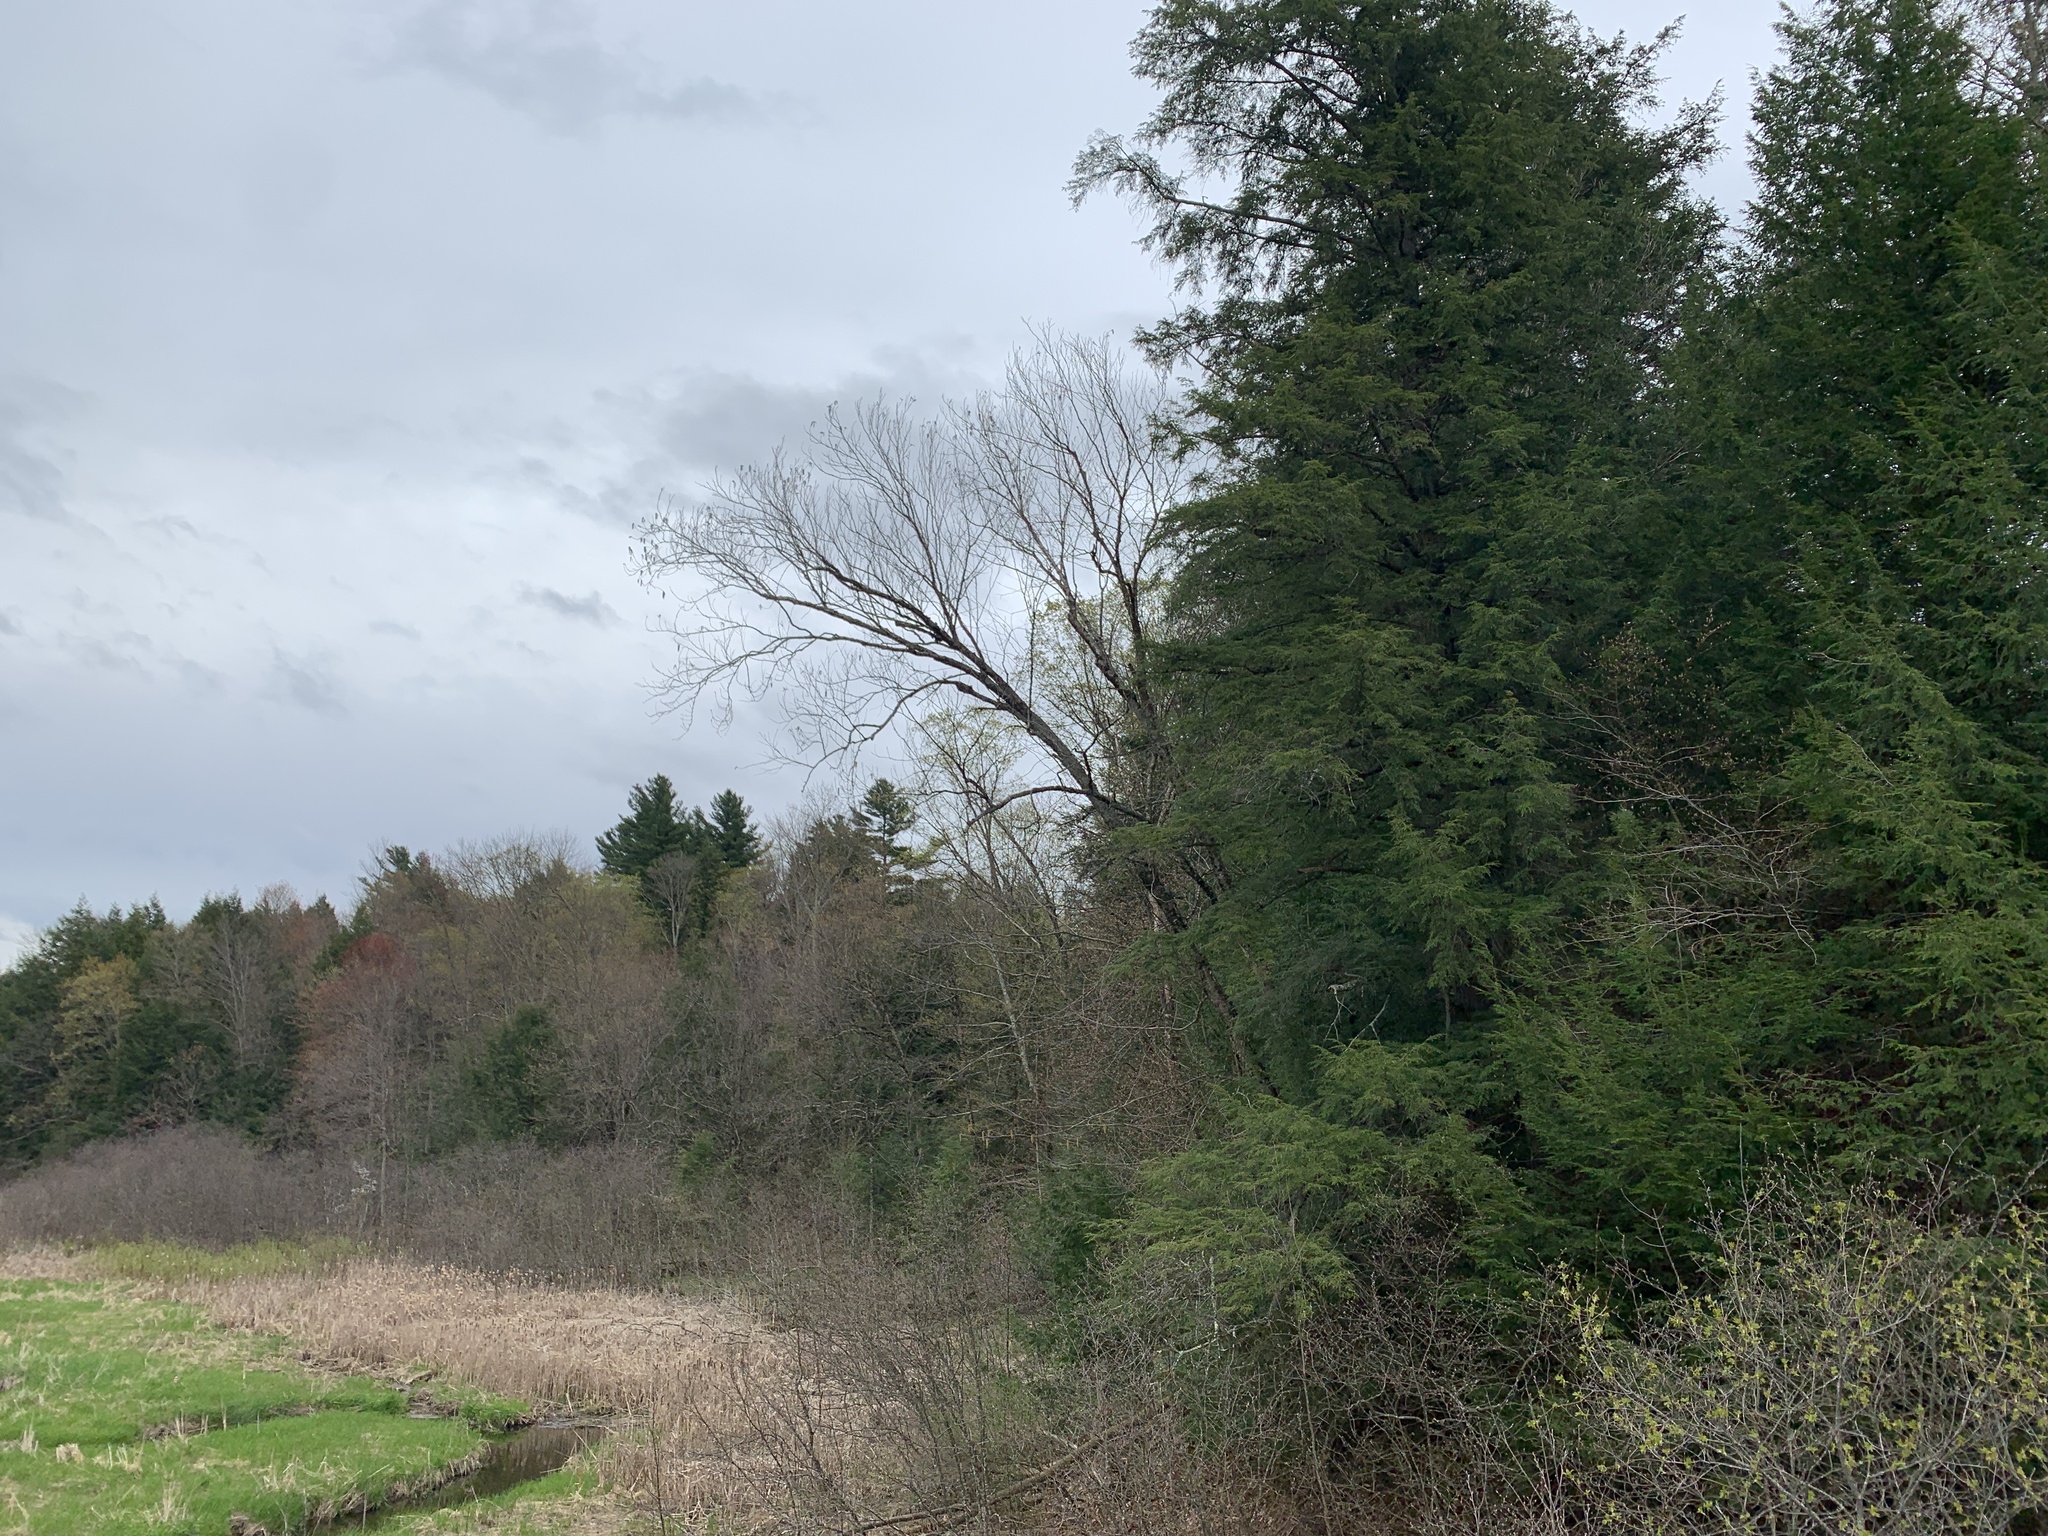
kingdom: Plantae
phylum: Tracheophyta
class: Pinopsida
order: Pinales
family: Pinaceae
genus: Tsuga
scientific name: Tsuga canadensis
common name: Eastern hemlock
